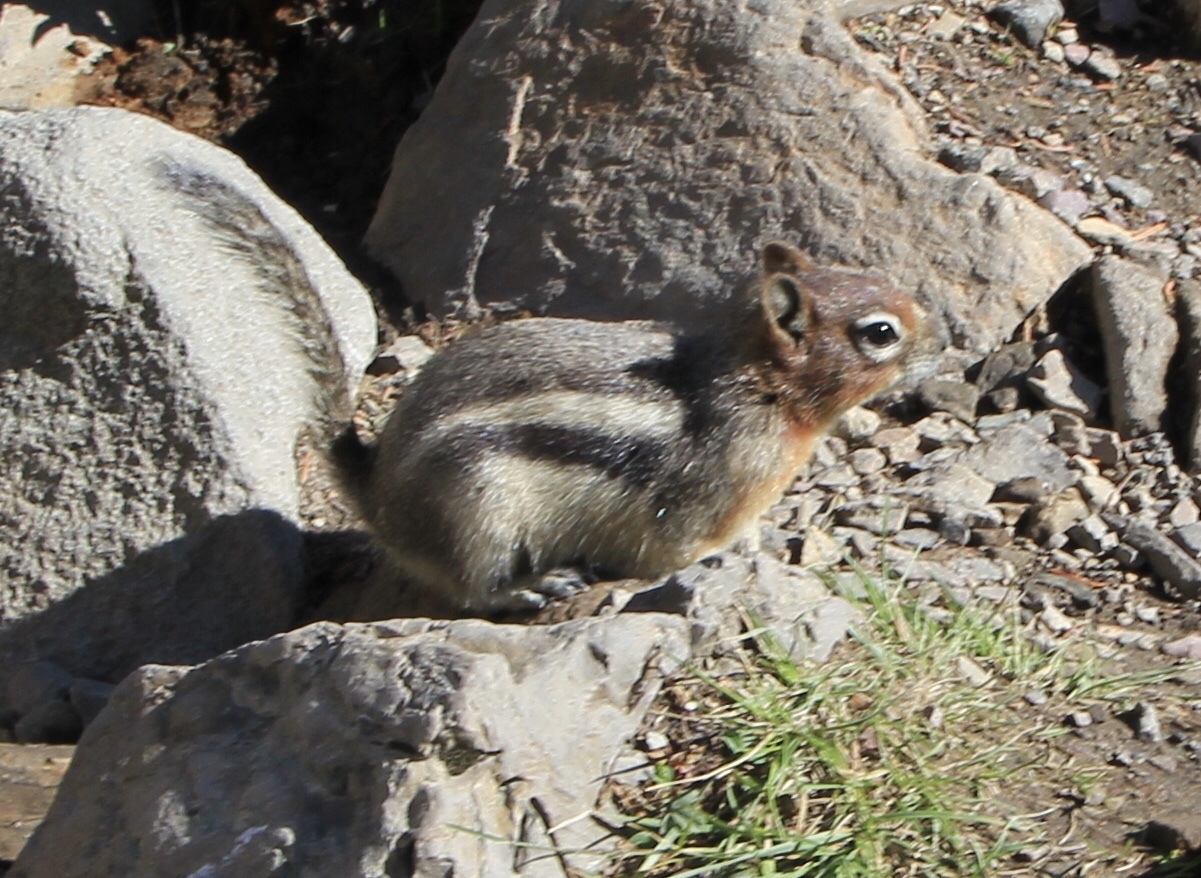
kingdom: Animalia
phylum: Chordata
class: Mammalia
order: Rodentia
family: Sciuridae
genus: Callospermophilus
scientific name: Callospermophilus lateralis
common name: Golden-mantled ground squirrel
